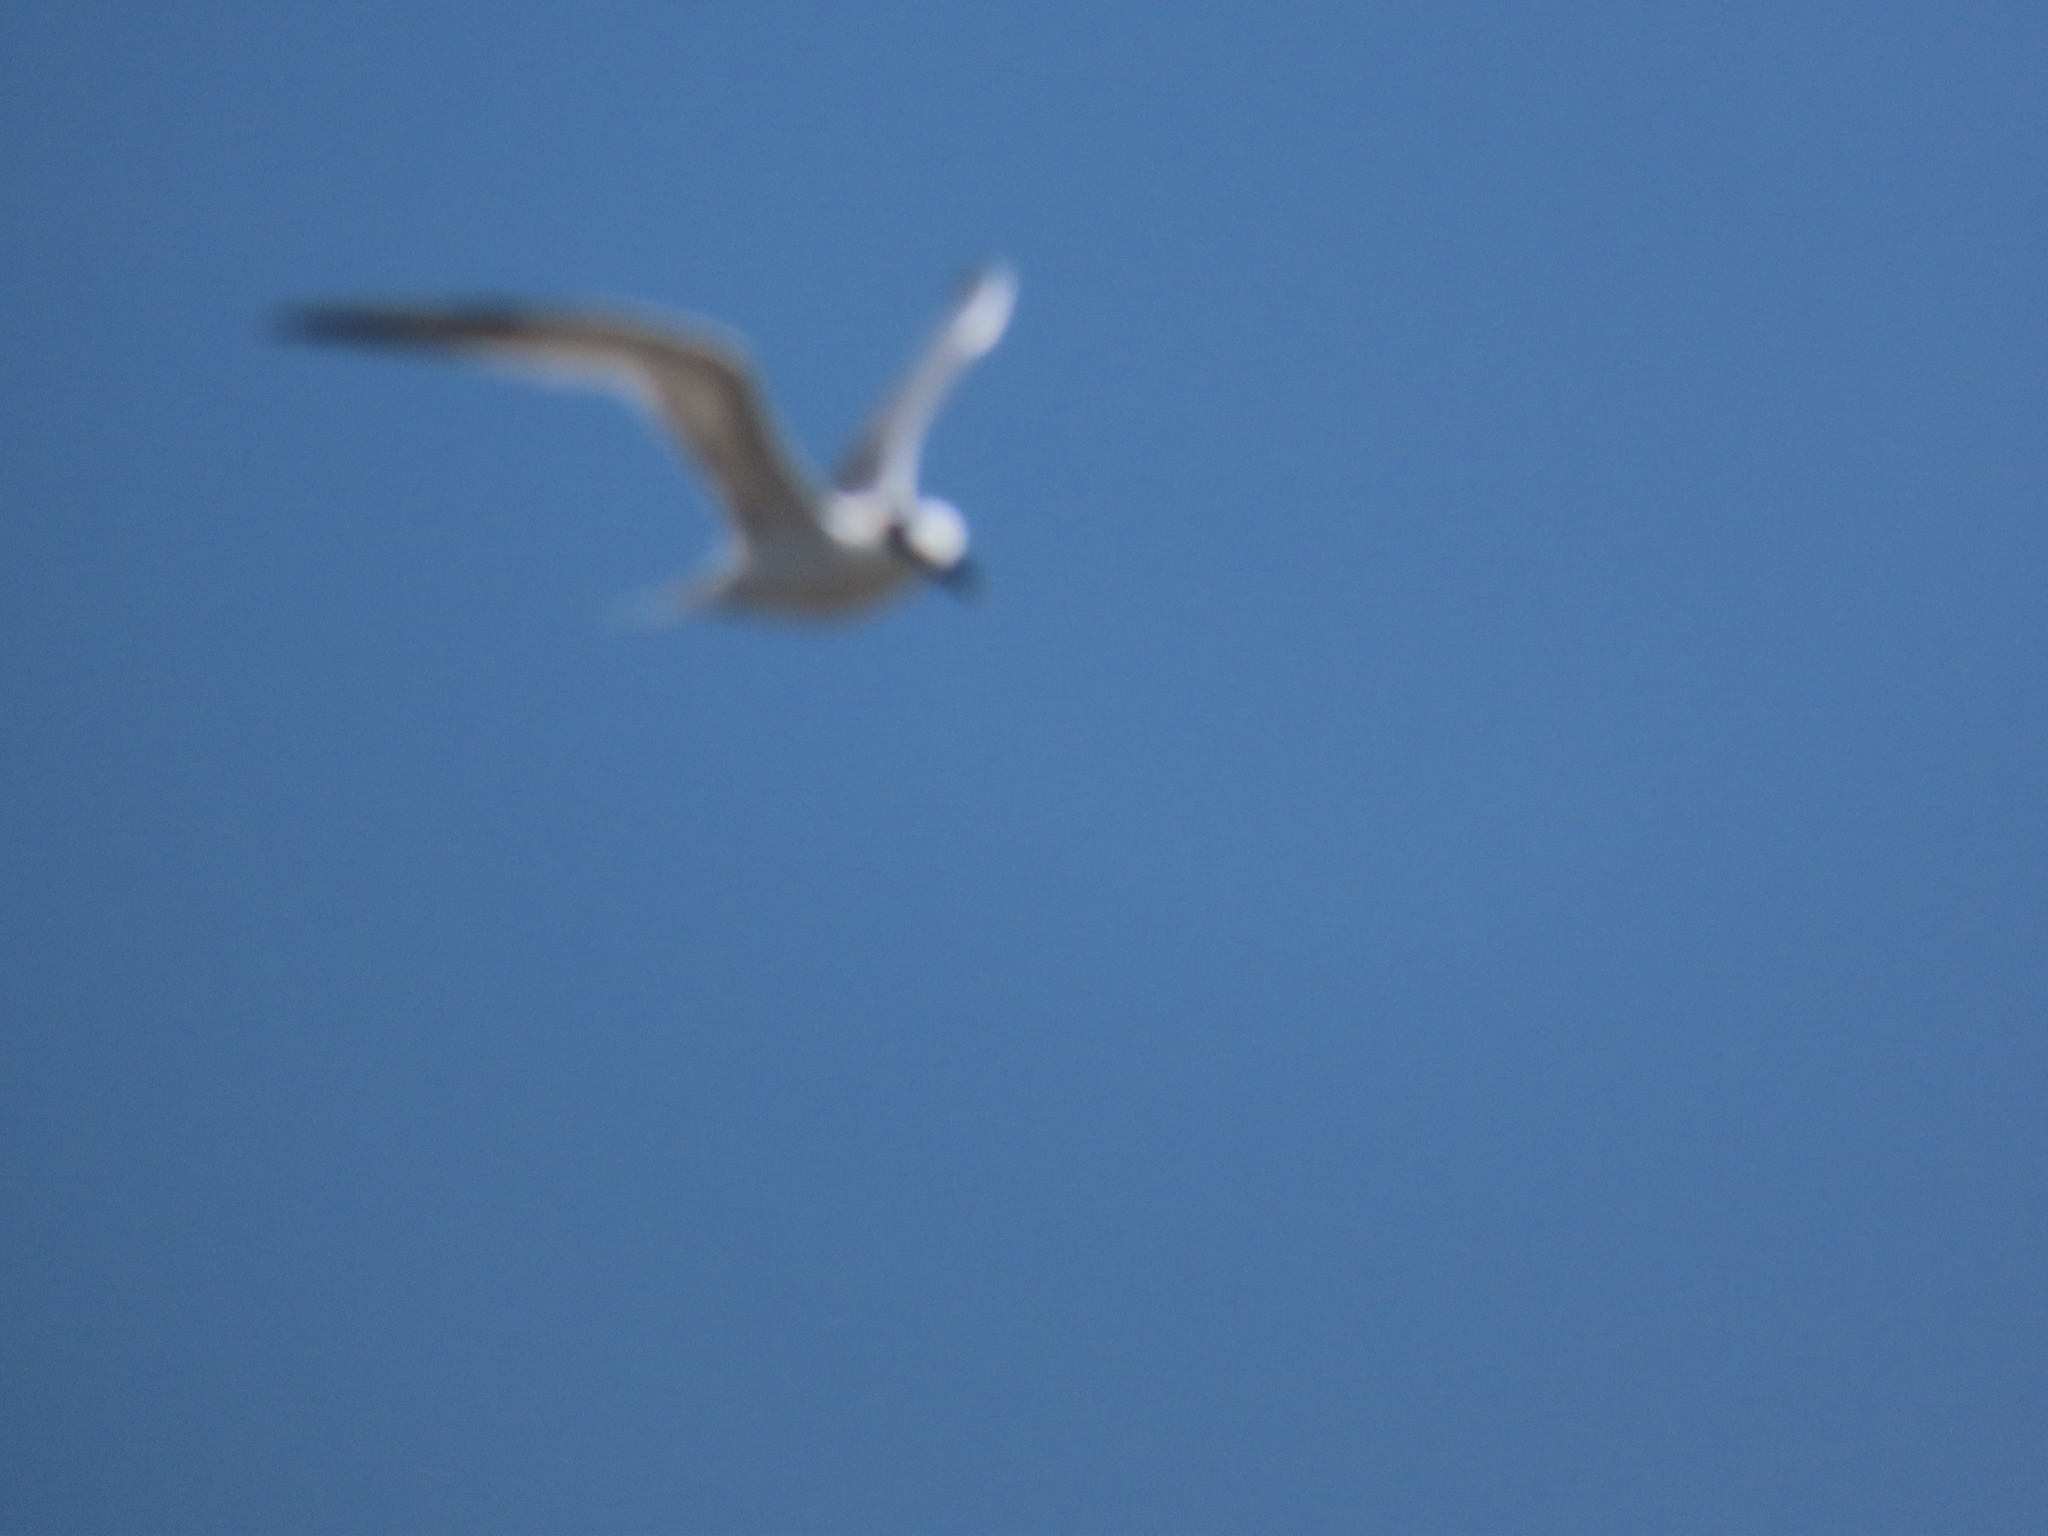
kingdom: Animalia
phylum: Chordata
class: Aves
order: Charadriiformes
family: Laridae
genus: Thalasseus
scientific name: Thalasseus sandvicensis
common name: Sandwich tern
